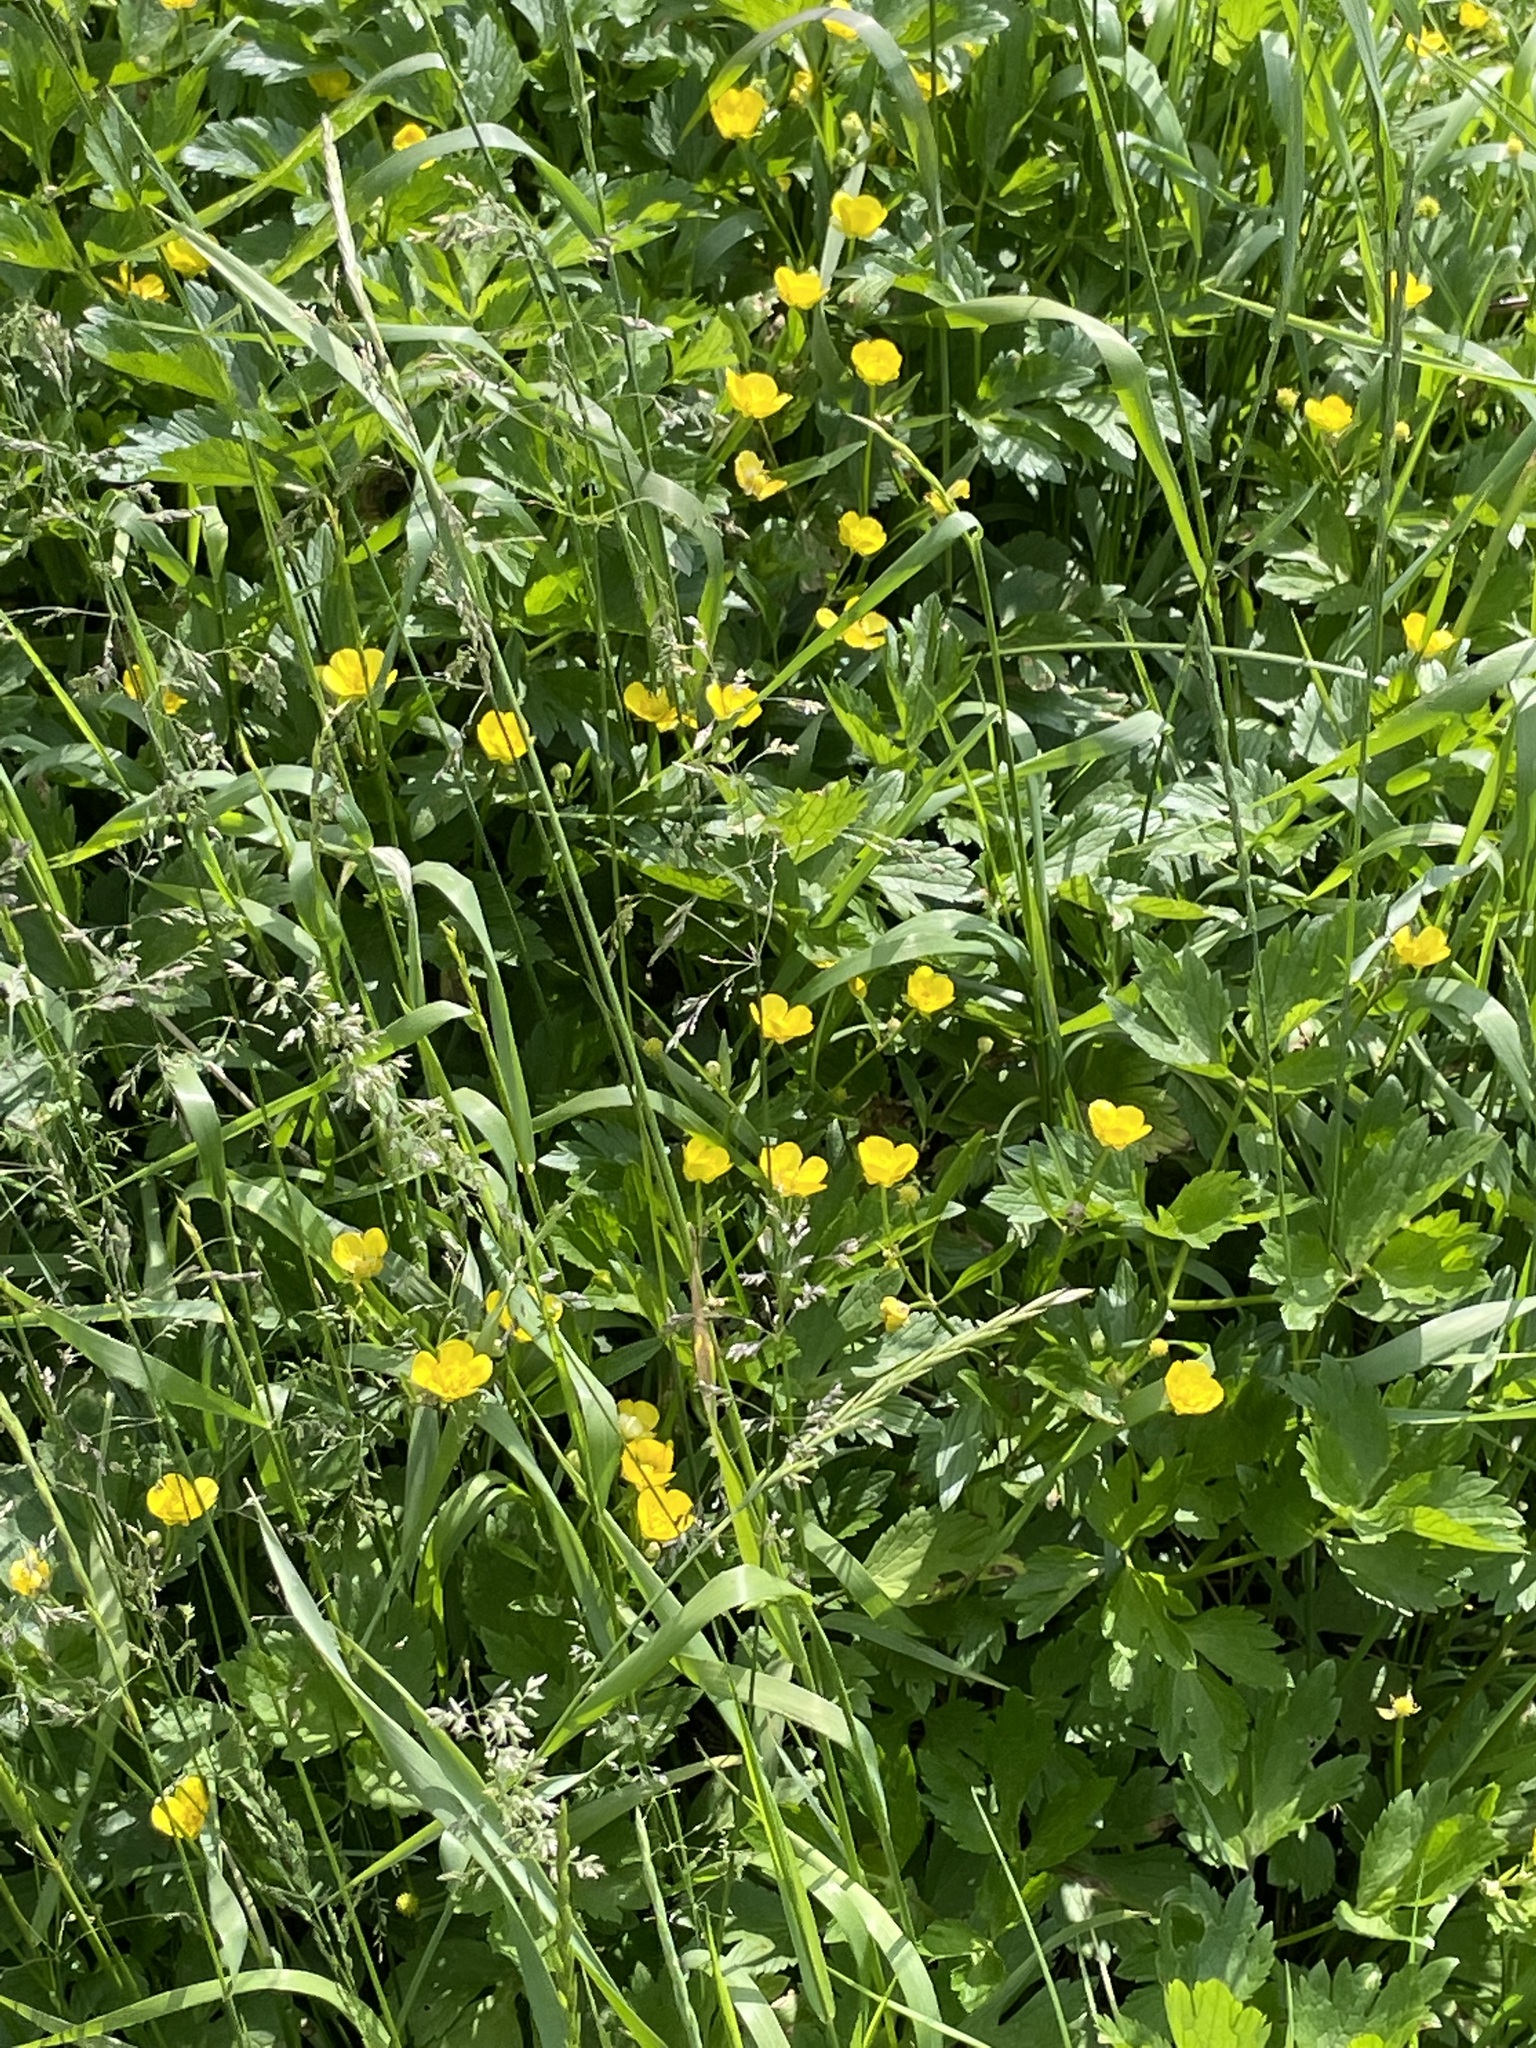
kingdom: Plantae
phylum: Tracheophyta
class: Magnoliopsida
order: Ranunculales
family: Ranunculaceae
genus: Ranunculus
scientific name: Ranunculus repens
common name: Creeping buttercup
